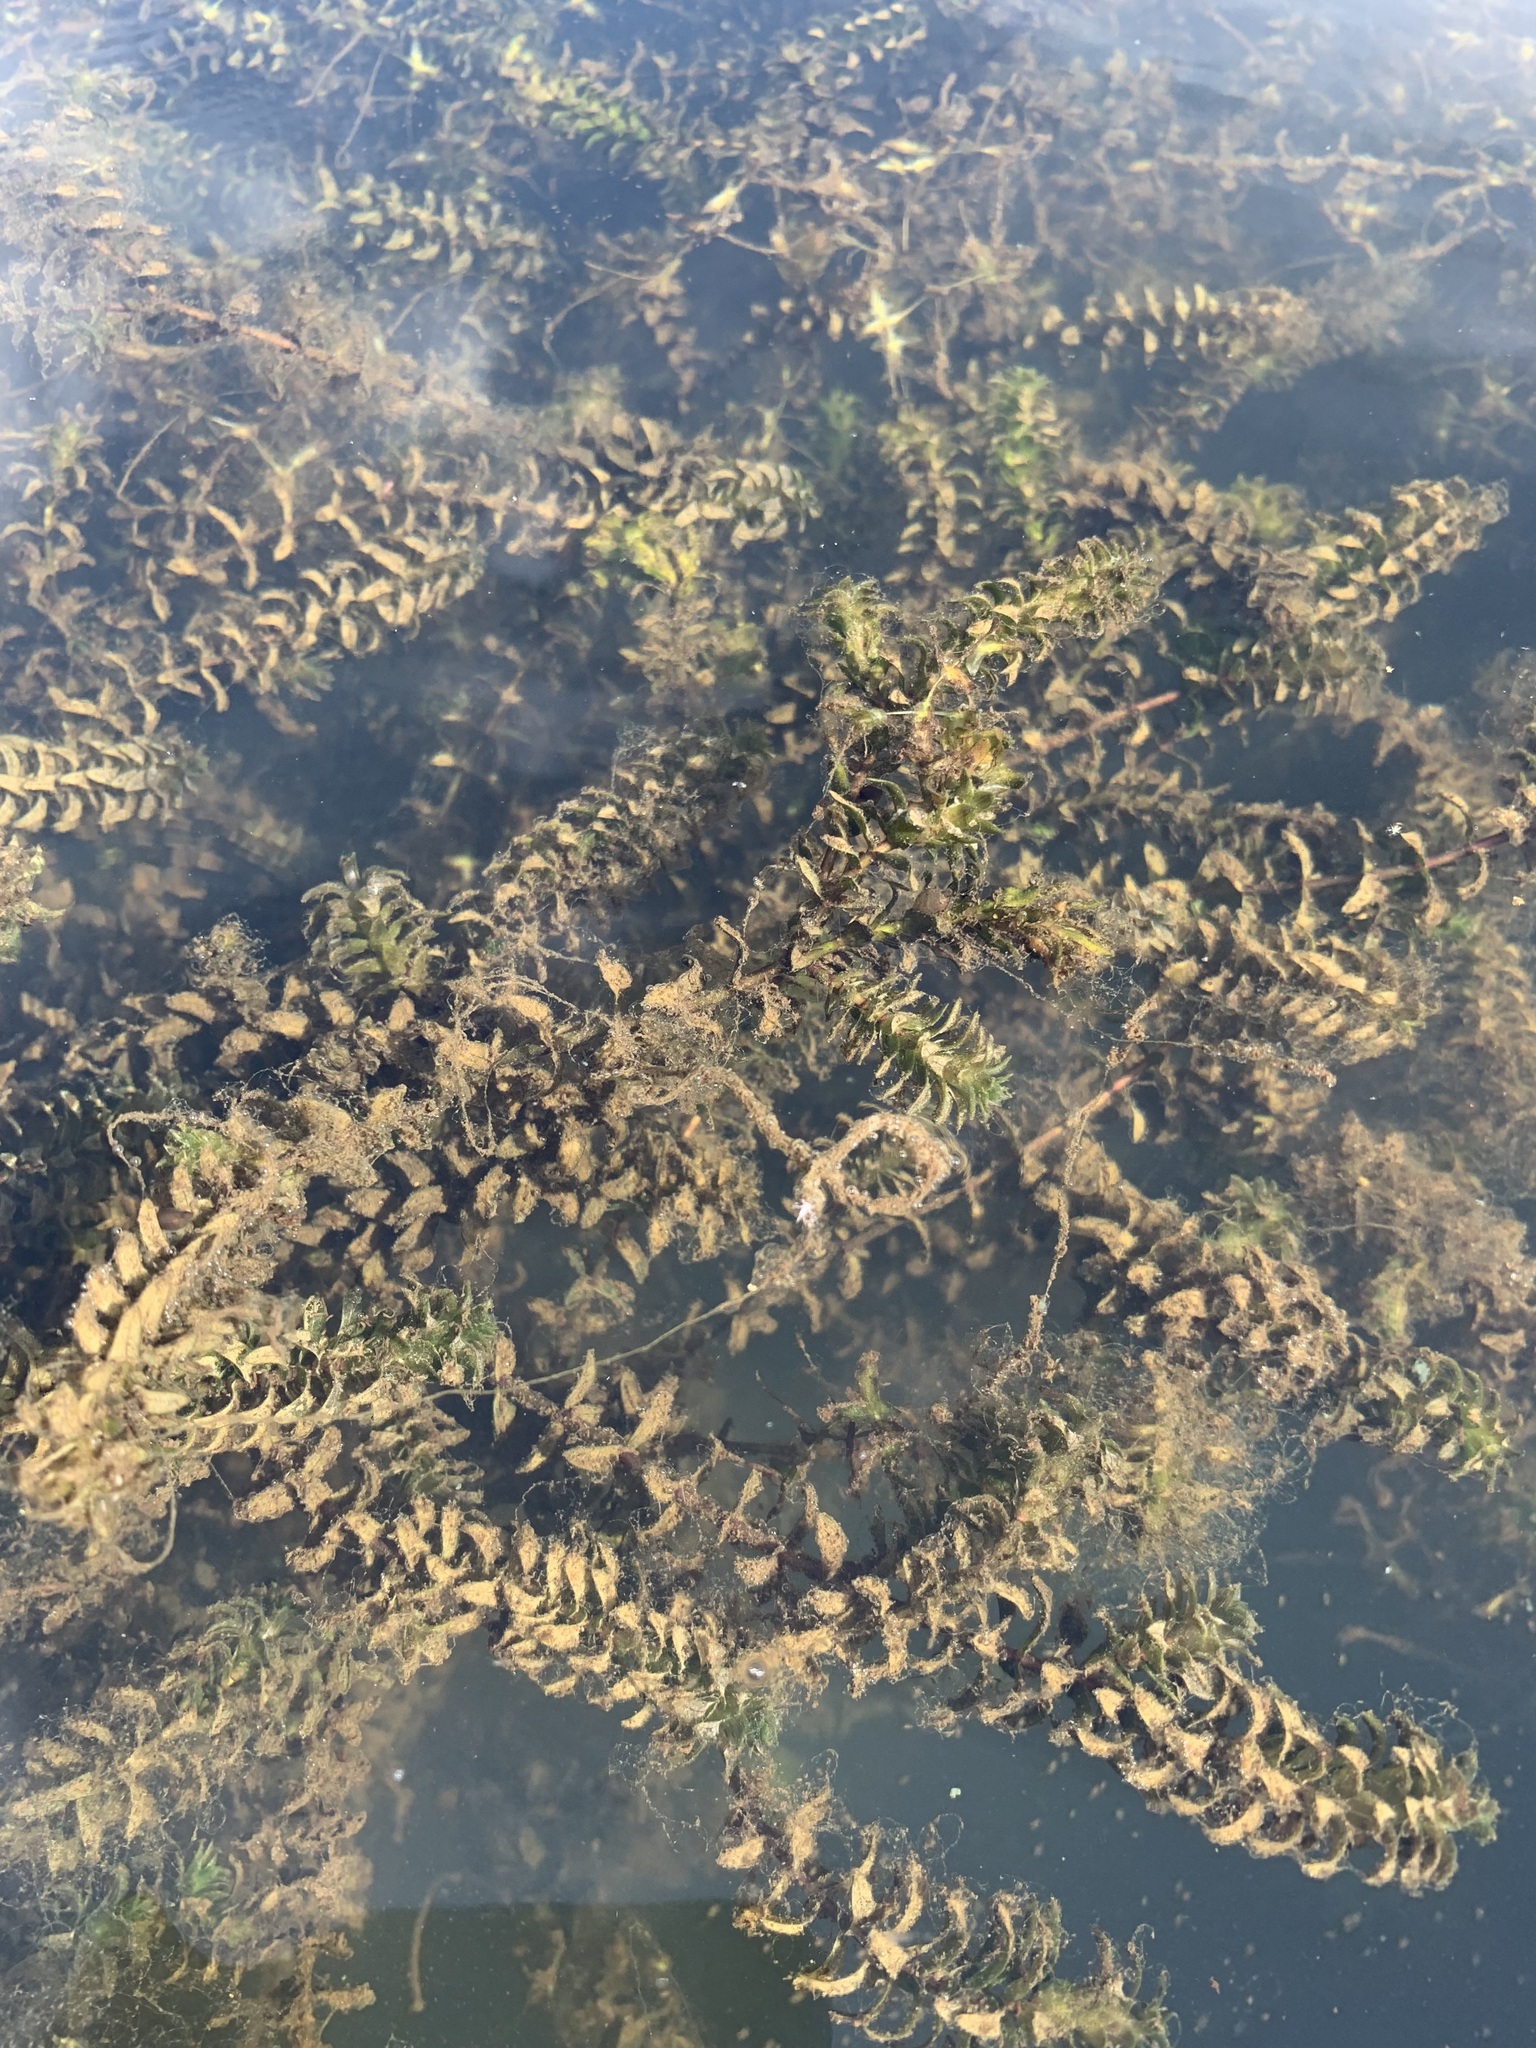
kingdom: Plantae
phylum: Tracheophyta
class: Liliopsida
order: Alismatales
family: Hydrocharitaceae
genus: Elodea
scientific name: Elodea canadensis
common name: Canadian waterweed
